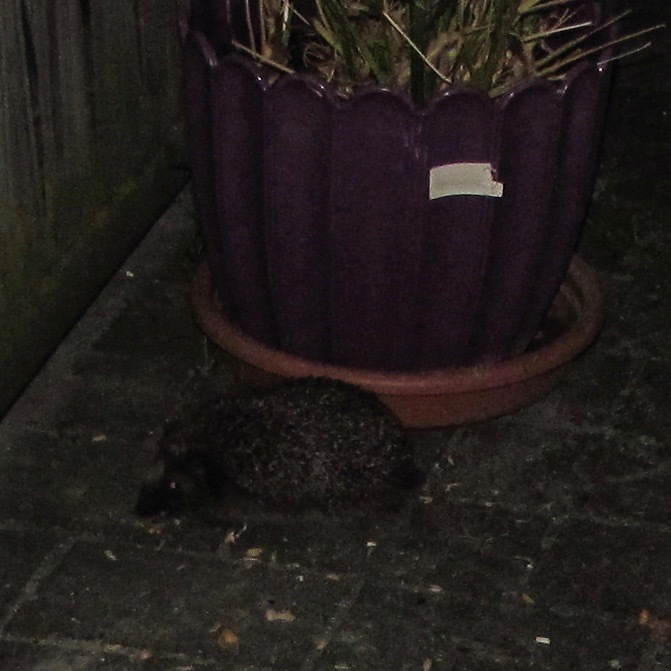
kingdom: Animalia
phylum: Chordata
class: Mammalia
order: Erinaceomorpha
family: Erinaceidae
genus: Erinaceus
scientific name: Erinaceus europaeus
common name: West european hedgehog
